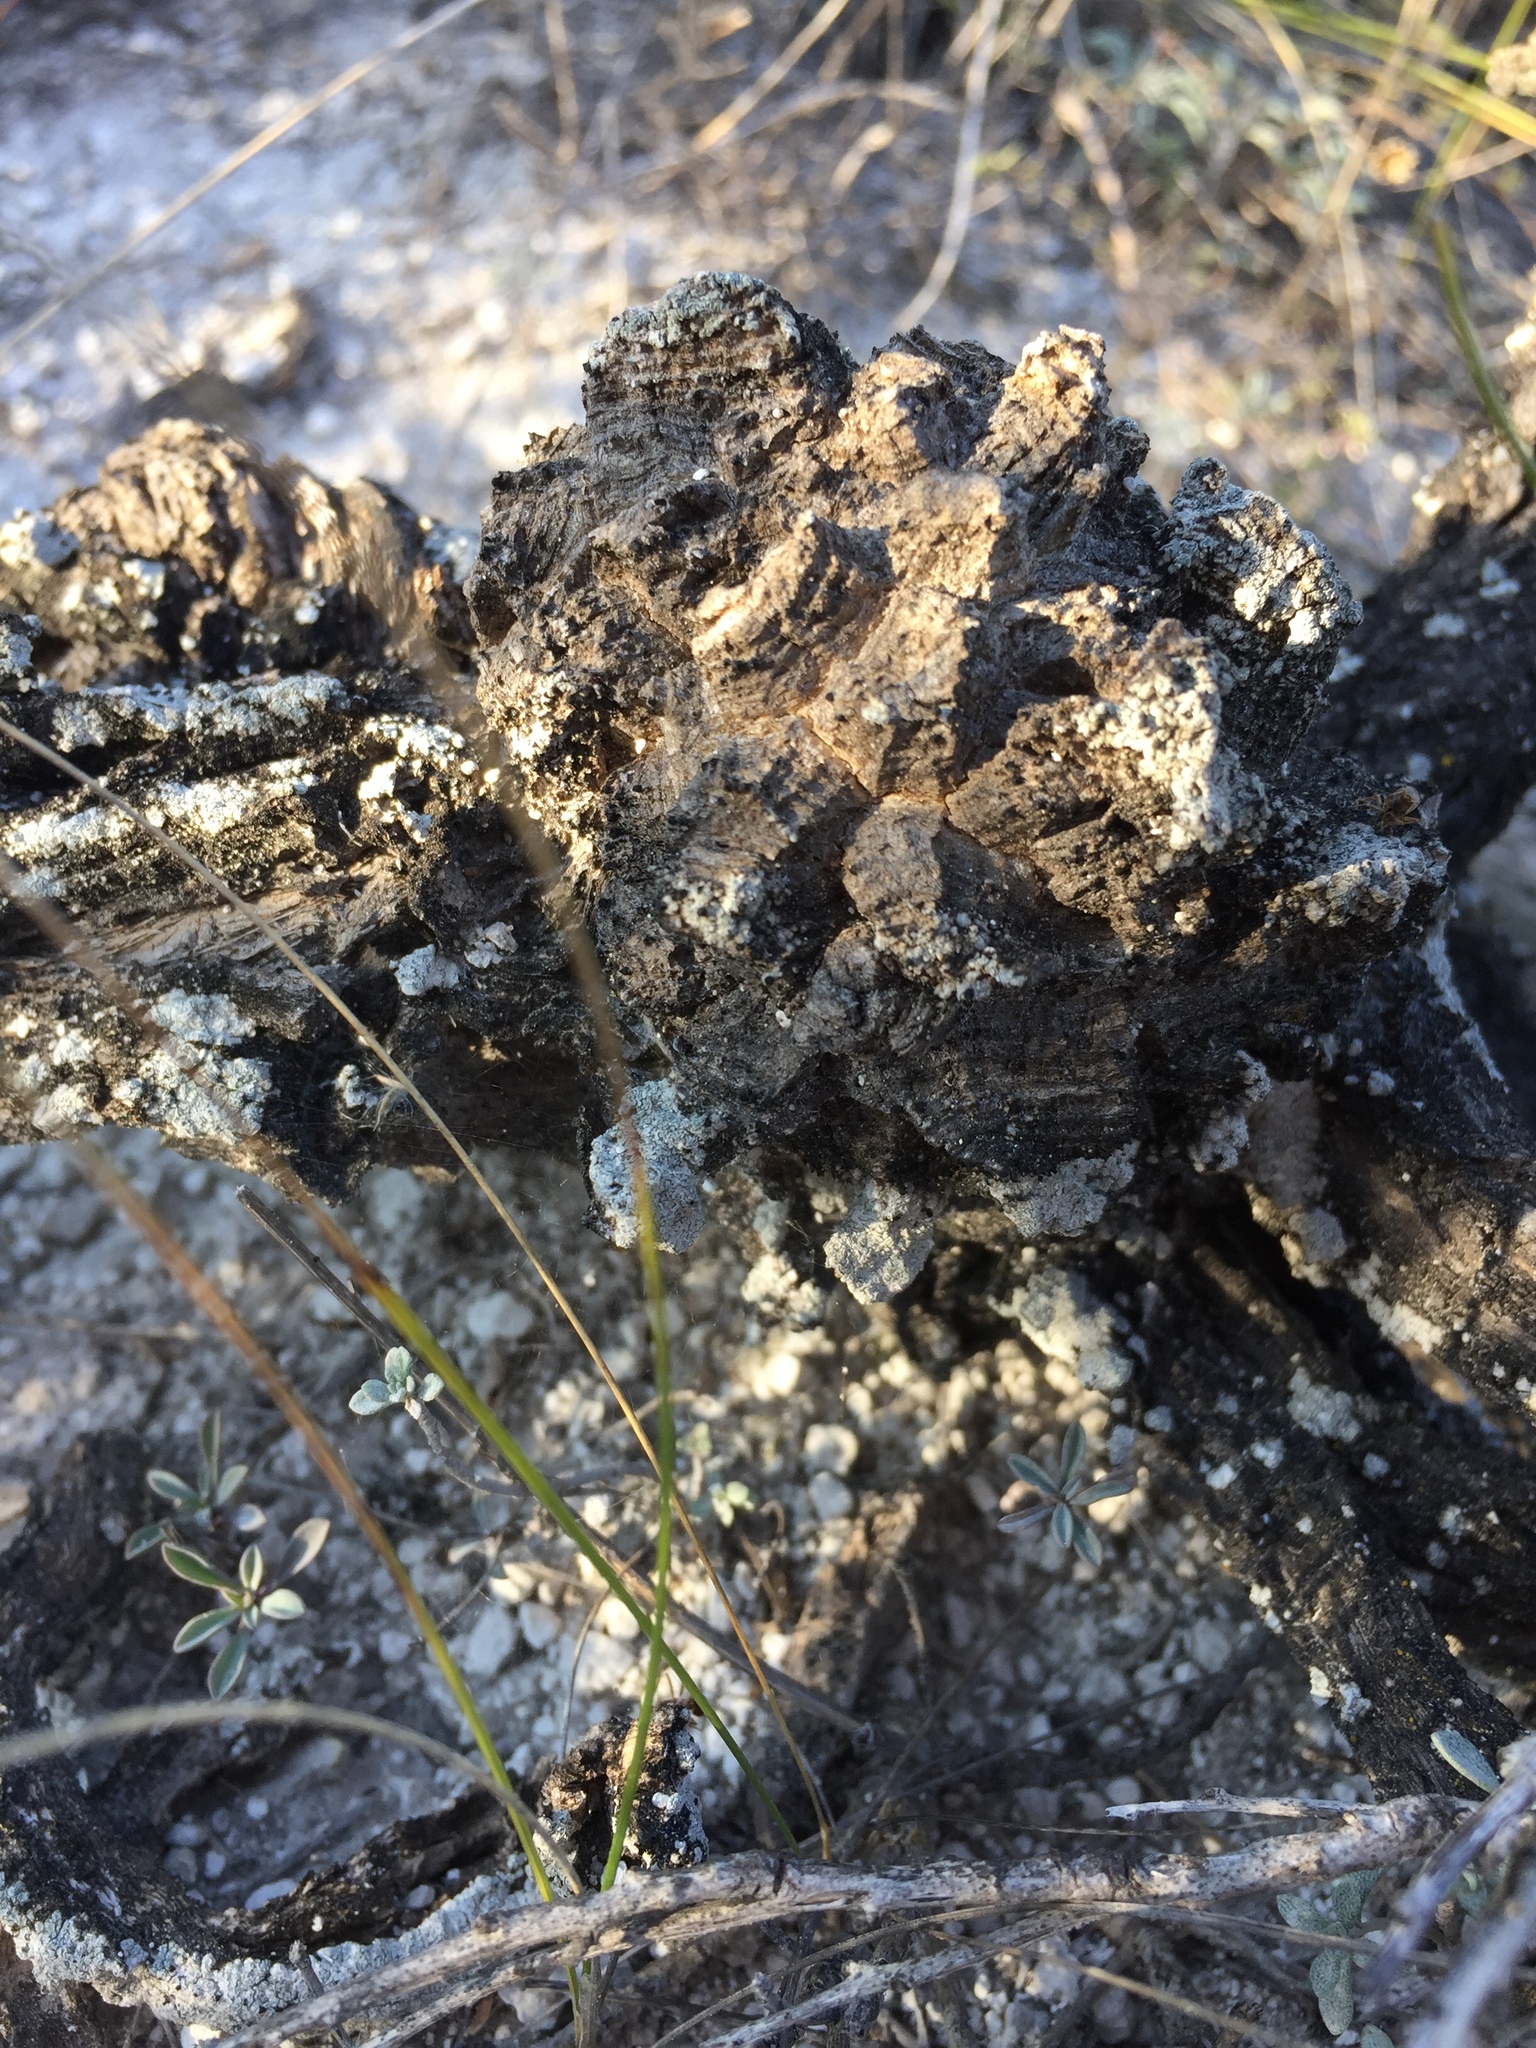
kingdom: Plantae
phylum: Tracheophyta
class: Magnoliopsida
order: Asterales
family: Asteraceae
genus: Artemisia
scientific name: Artemisia salsoloides
